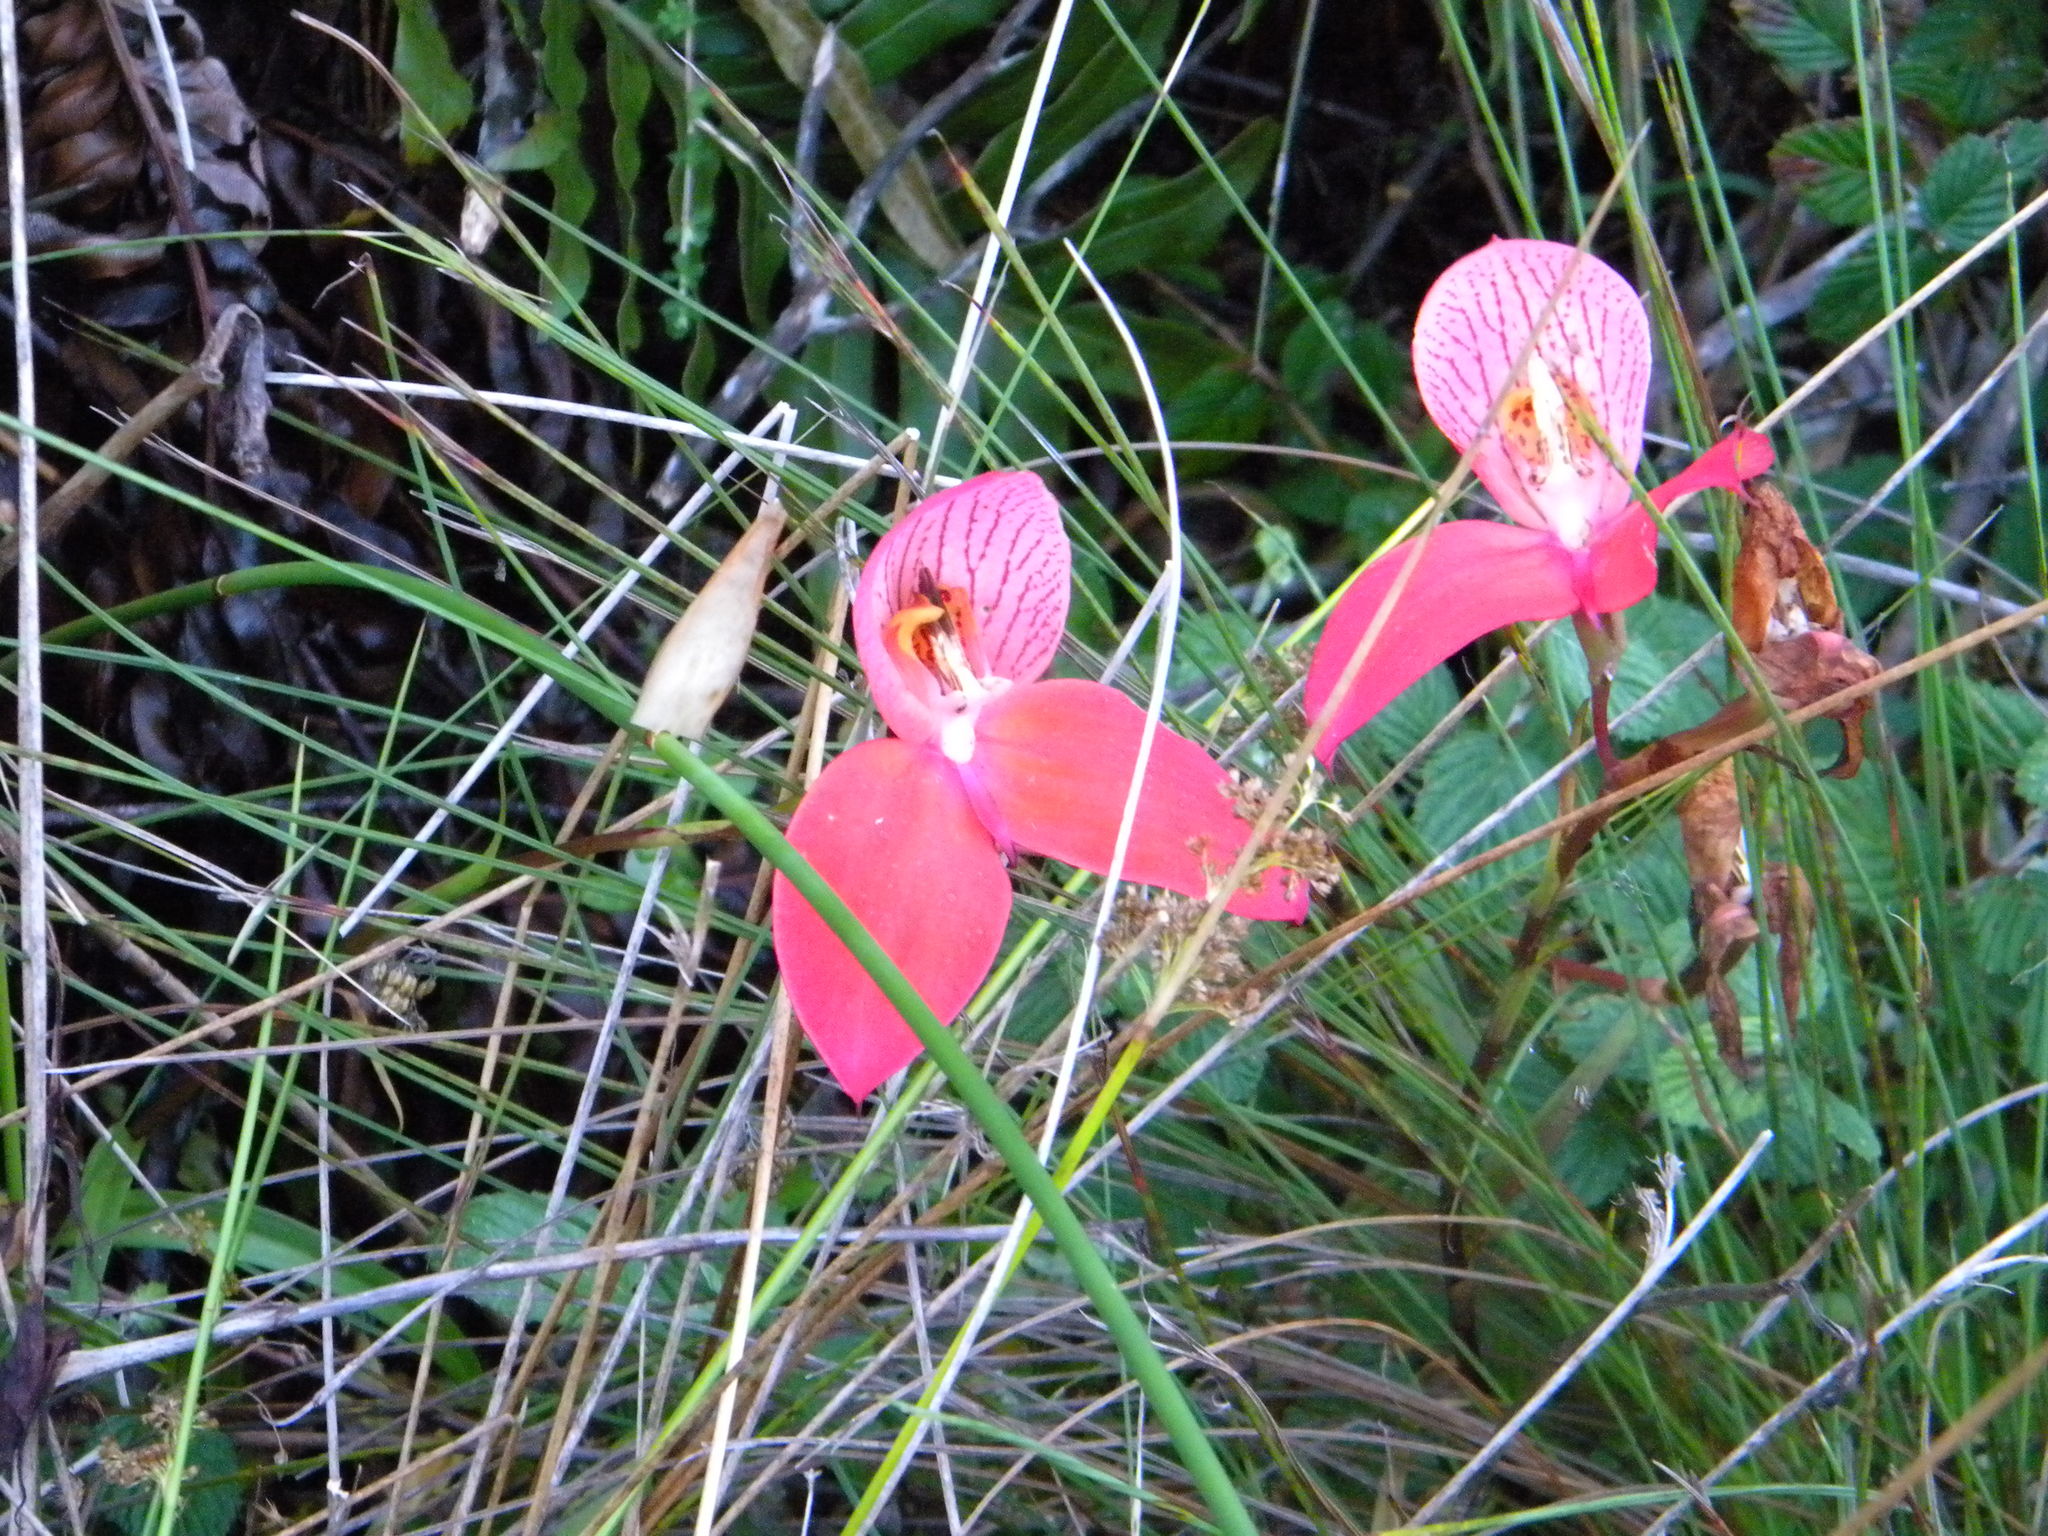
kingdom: Plantae
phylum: Tracheophyta
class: Liliopsida
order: Asparagales
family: Orchidaceae
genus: Disa
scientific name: Disa uniflora
